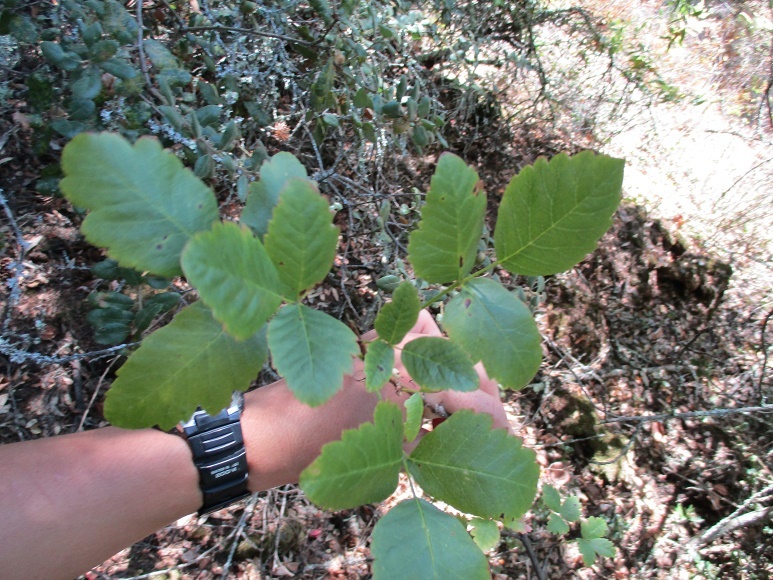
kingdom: Plantae
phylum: Tracheophyta
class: Magnoliopsida
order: Sapindales
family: Anacardiaceae
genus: Toxicodendron
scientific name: Toxicodendron diversilobum
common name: Pacific poison-oak
